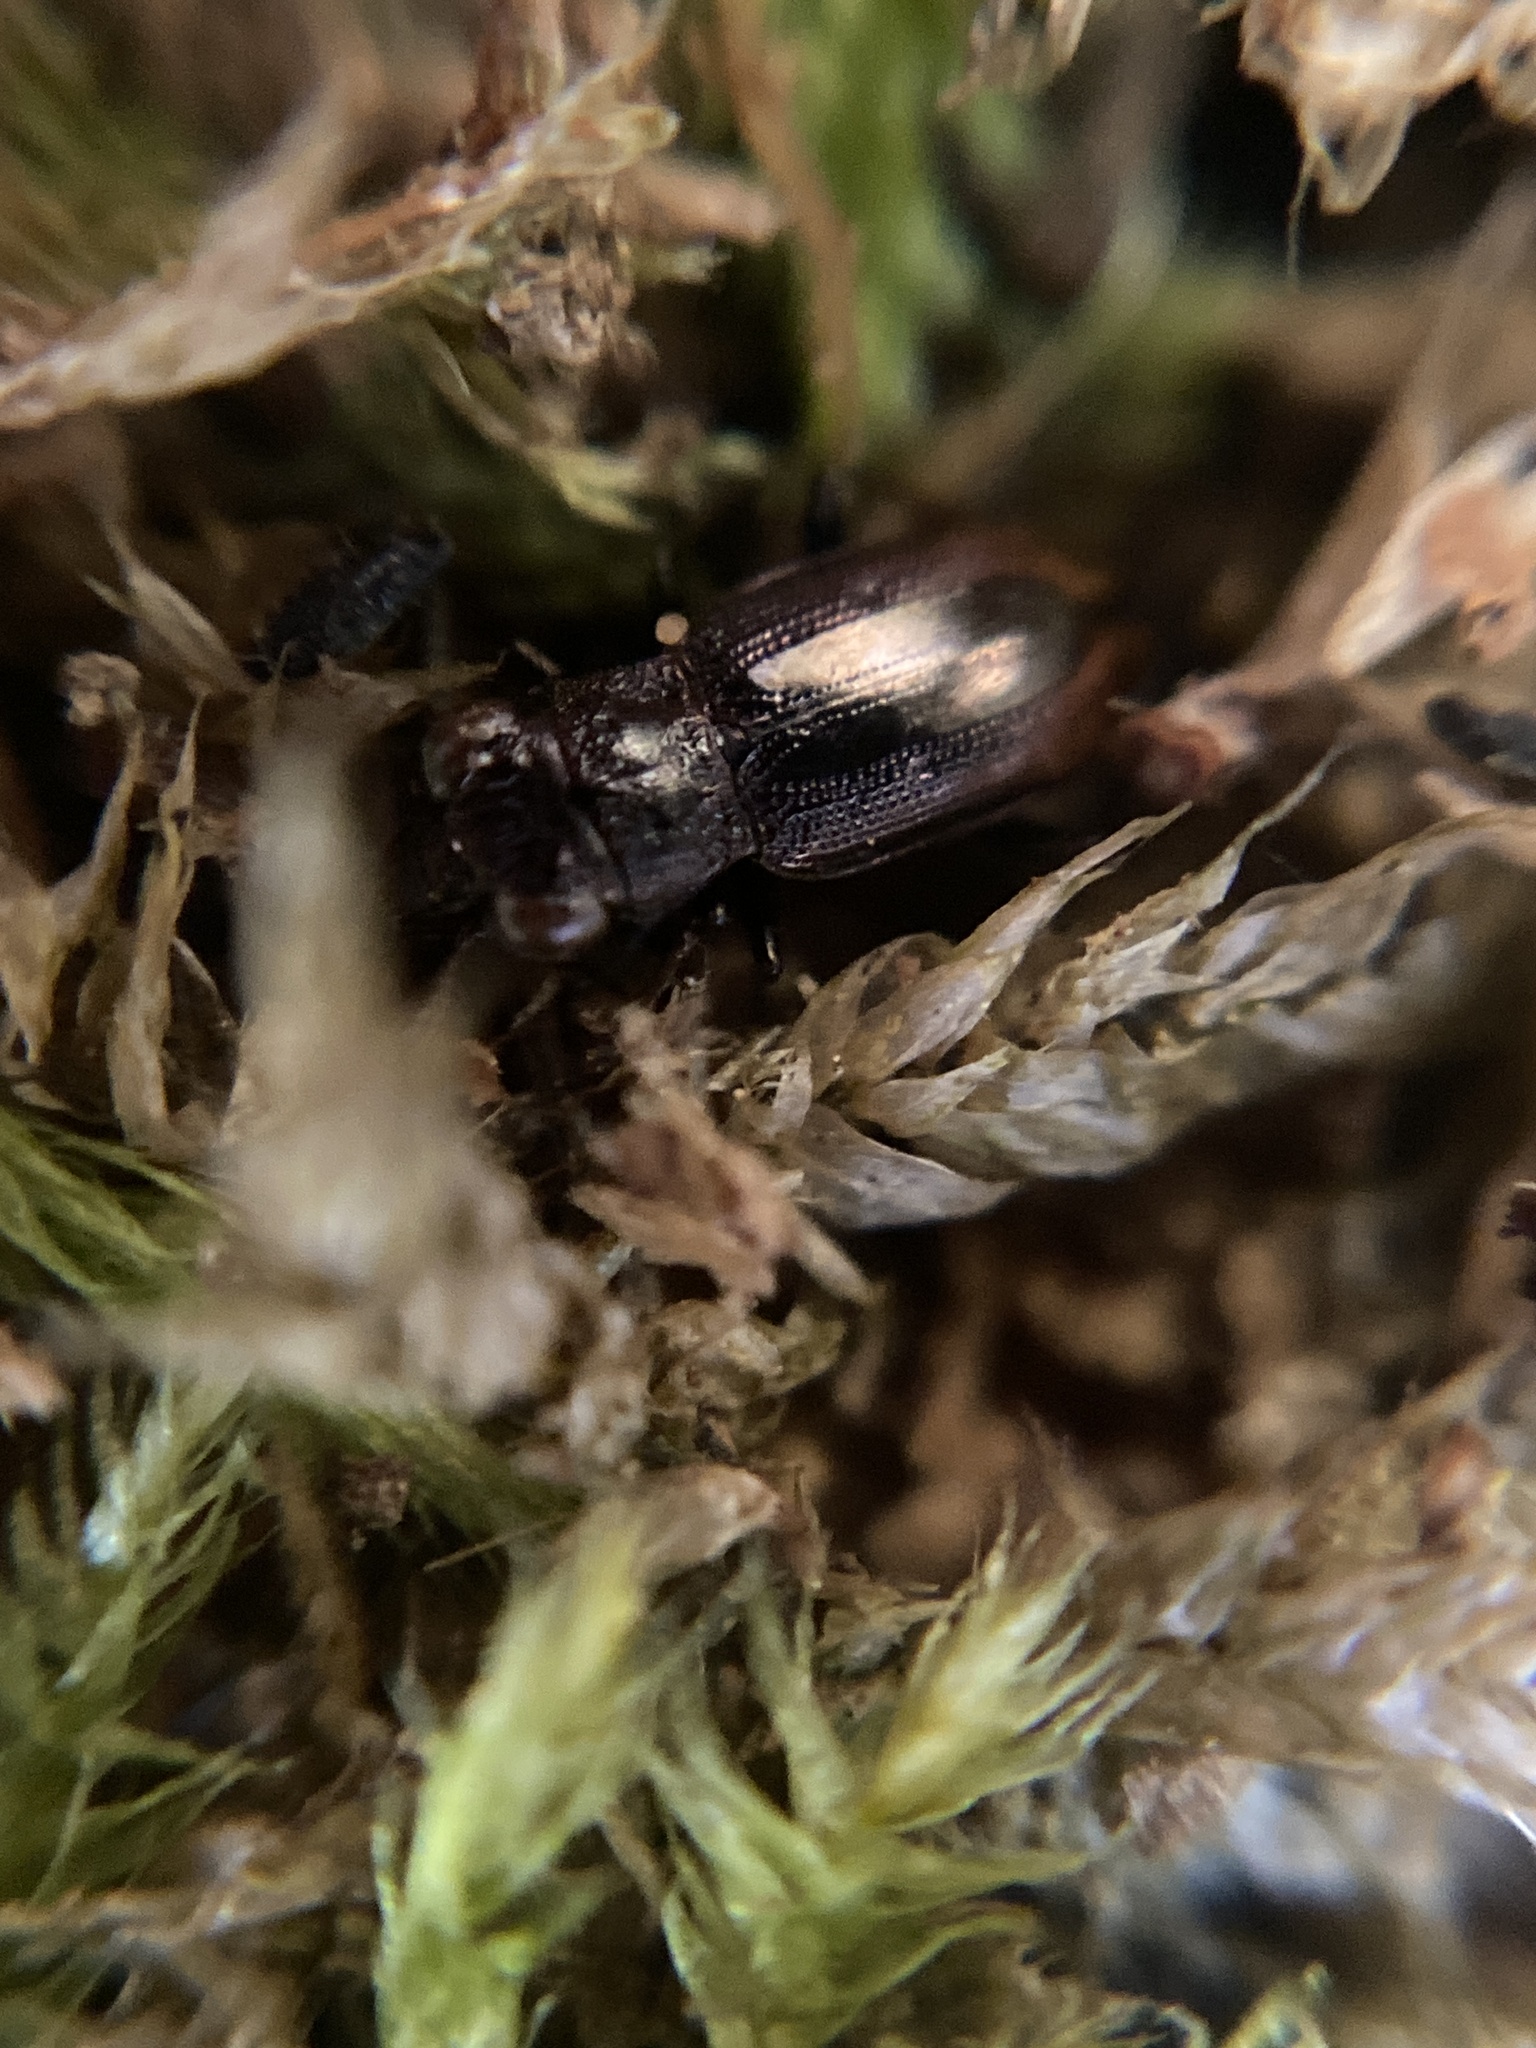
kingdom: Animalia
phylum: Arthropoda
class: Insecta
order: Coleoptera
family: Carabidae
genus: Notiophilus
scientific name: Notiophilus biguttatus
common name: Spotted gazelle beetle
